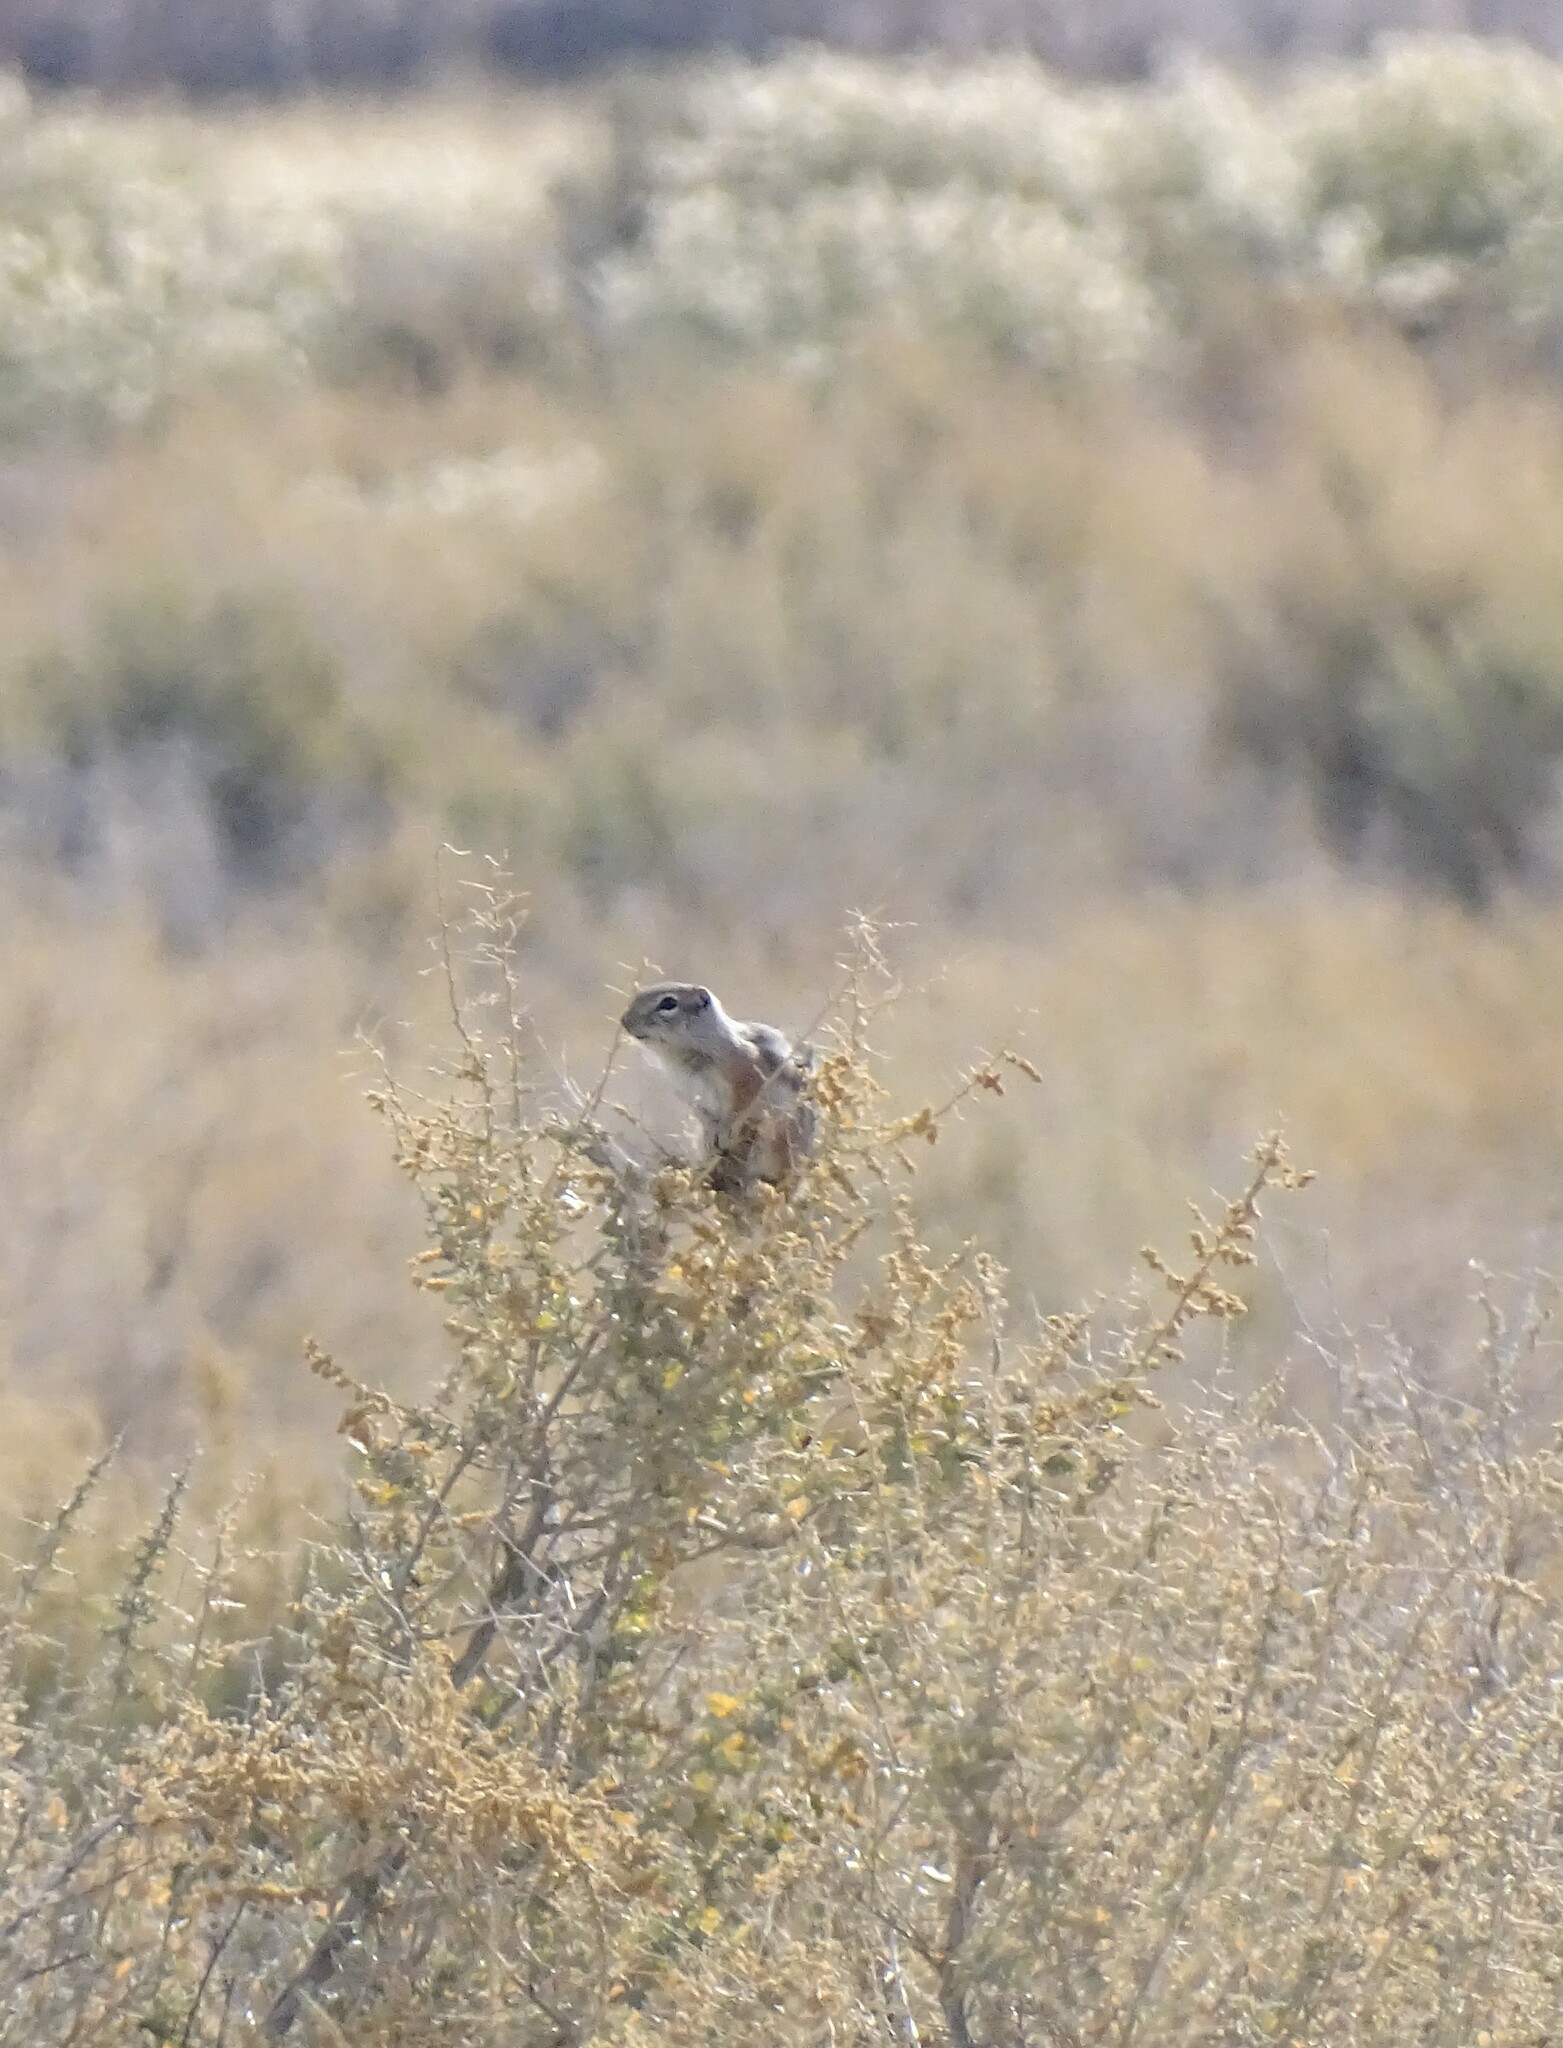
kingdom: Animalia
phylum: Chordata
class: Mammalia
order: Rodentia
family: Sciuridae
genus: Ammospermophilus
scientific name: Ammospermophilus leucurus
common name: White-tailed antelope squirrel
